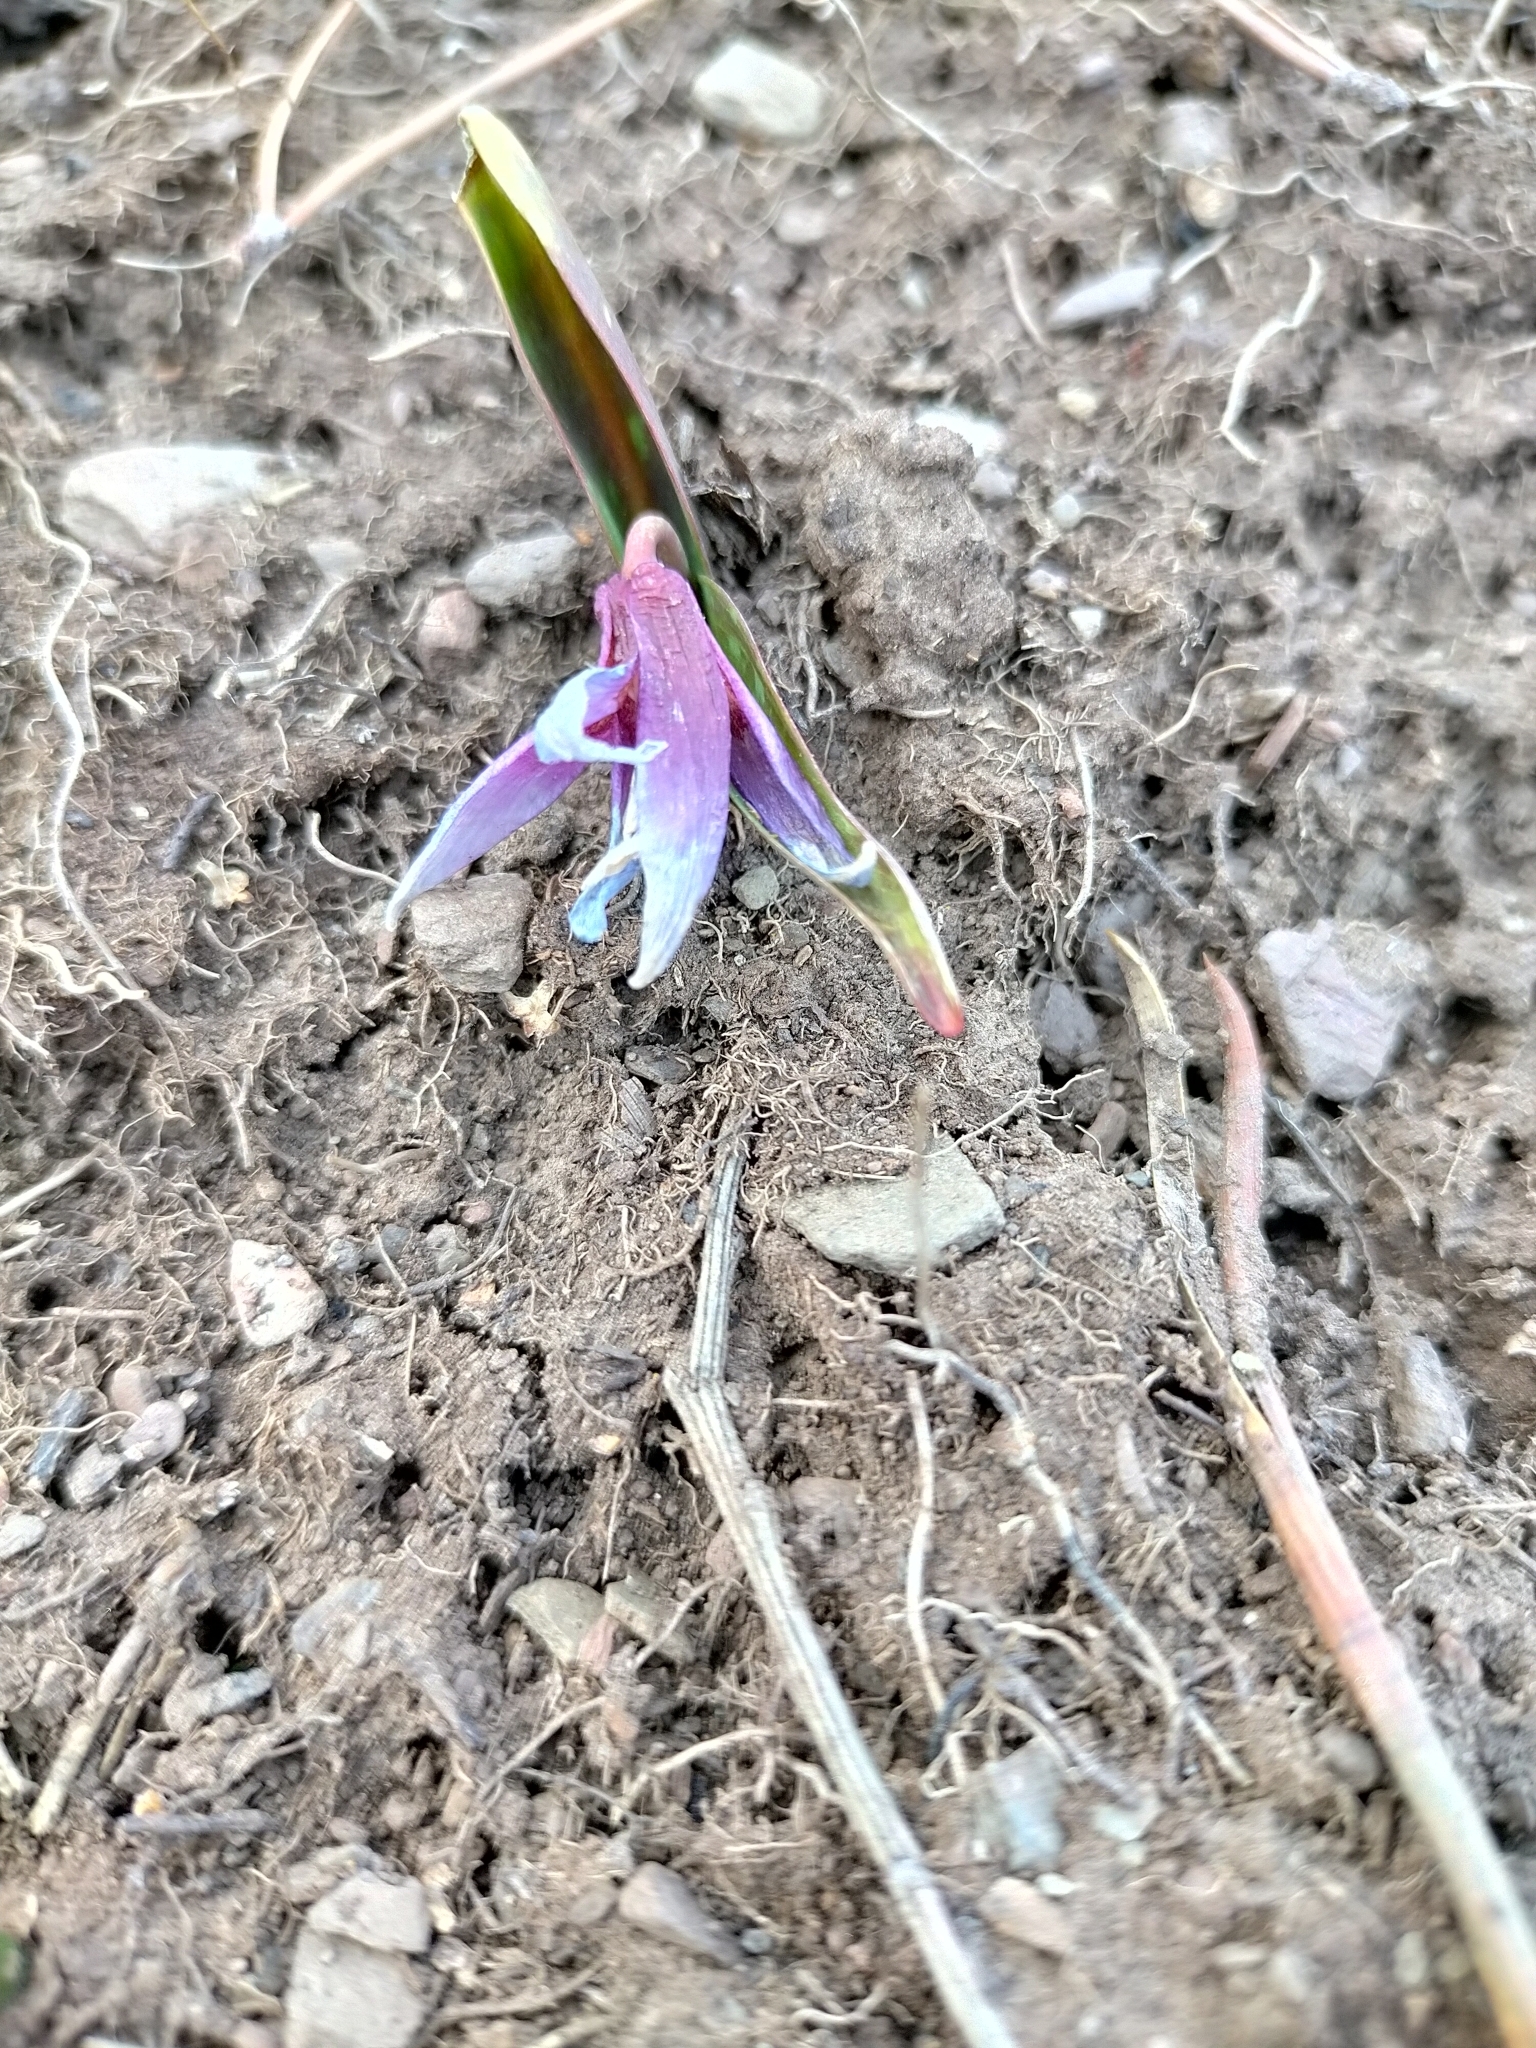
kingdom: Plantae
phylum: Tracheophyta
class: Liliopsida
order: Liliales
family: Liliaceae
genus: Erythronium
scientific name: Erythronium dens-canis
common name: Dog's-tooth-violet
